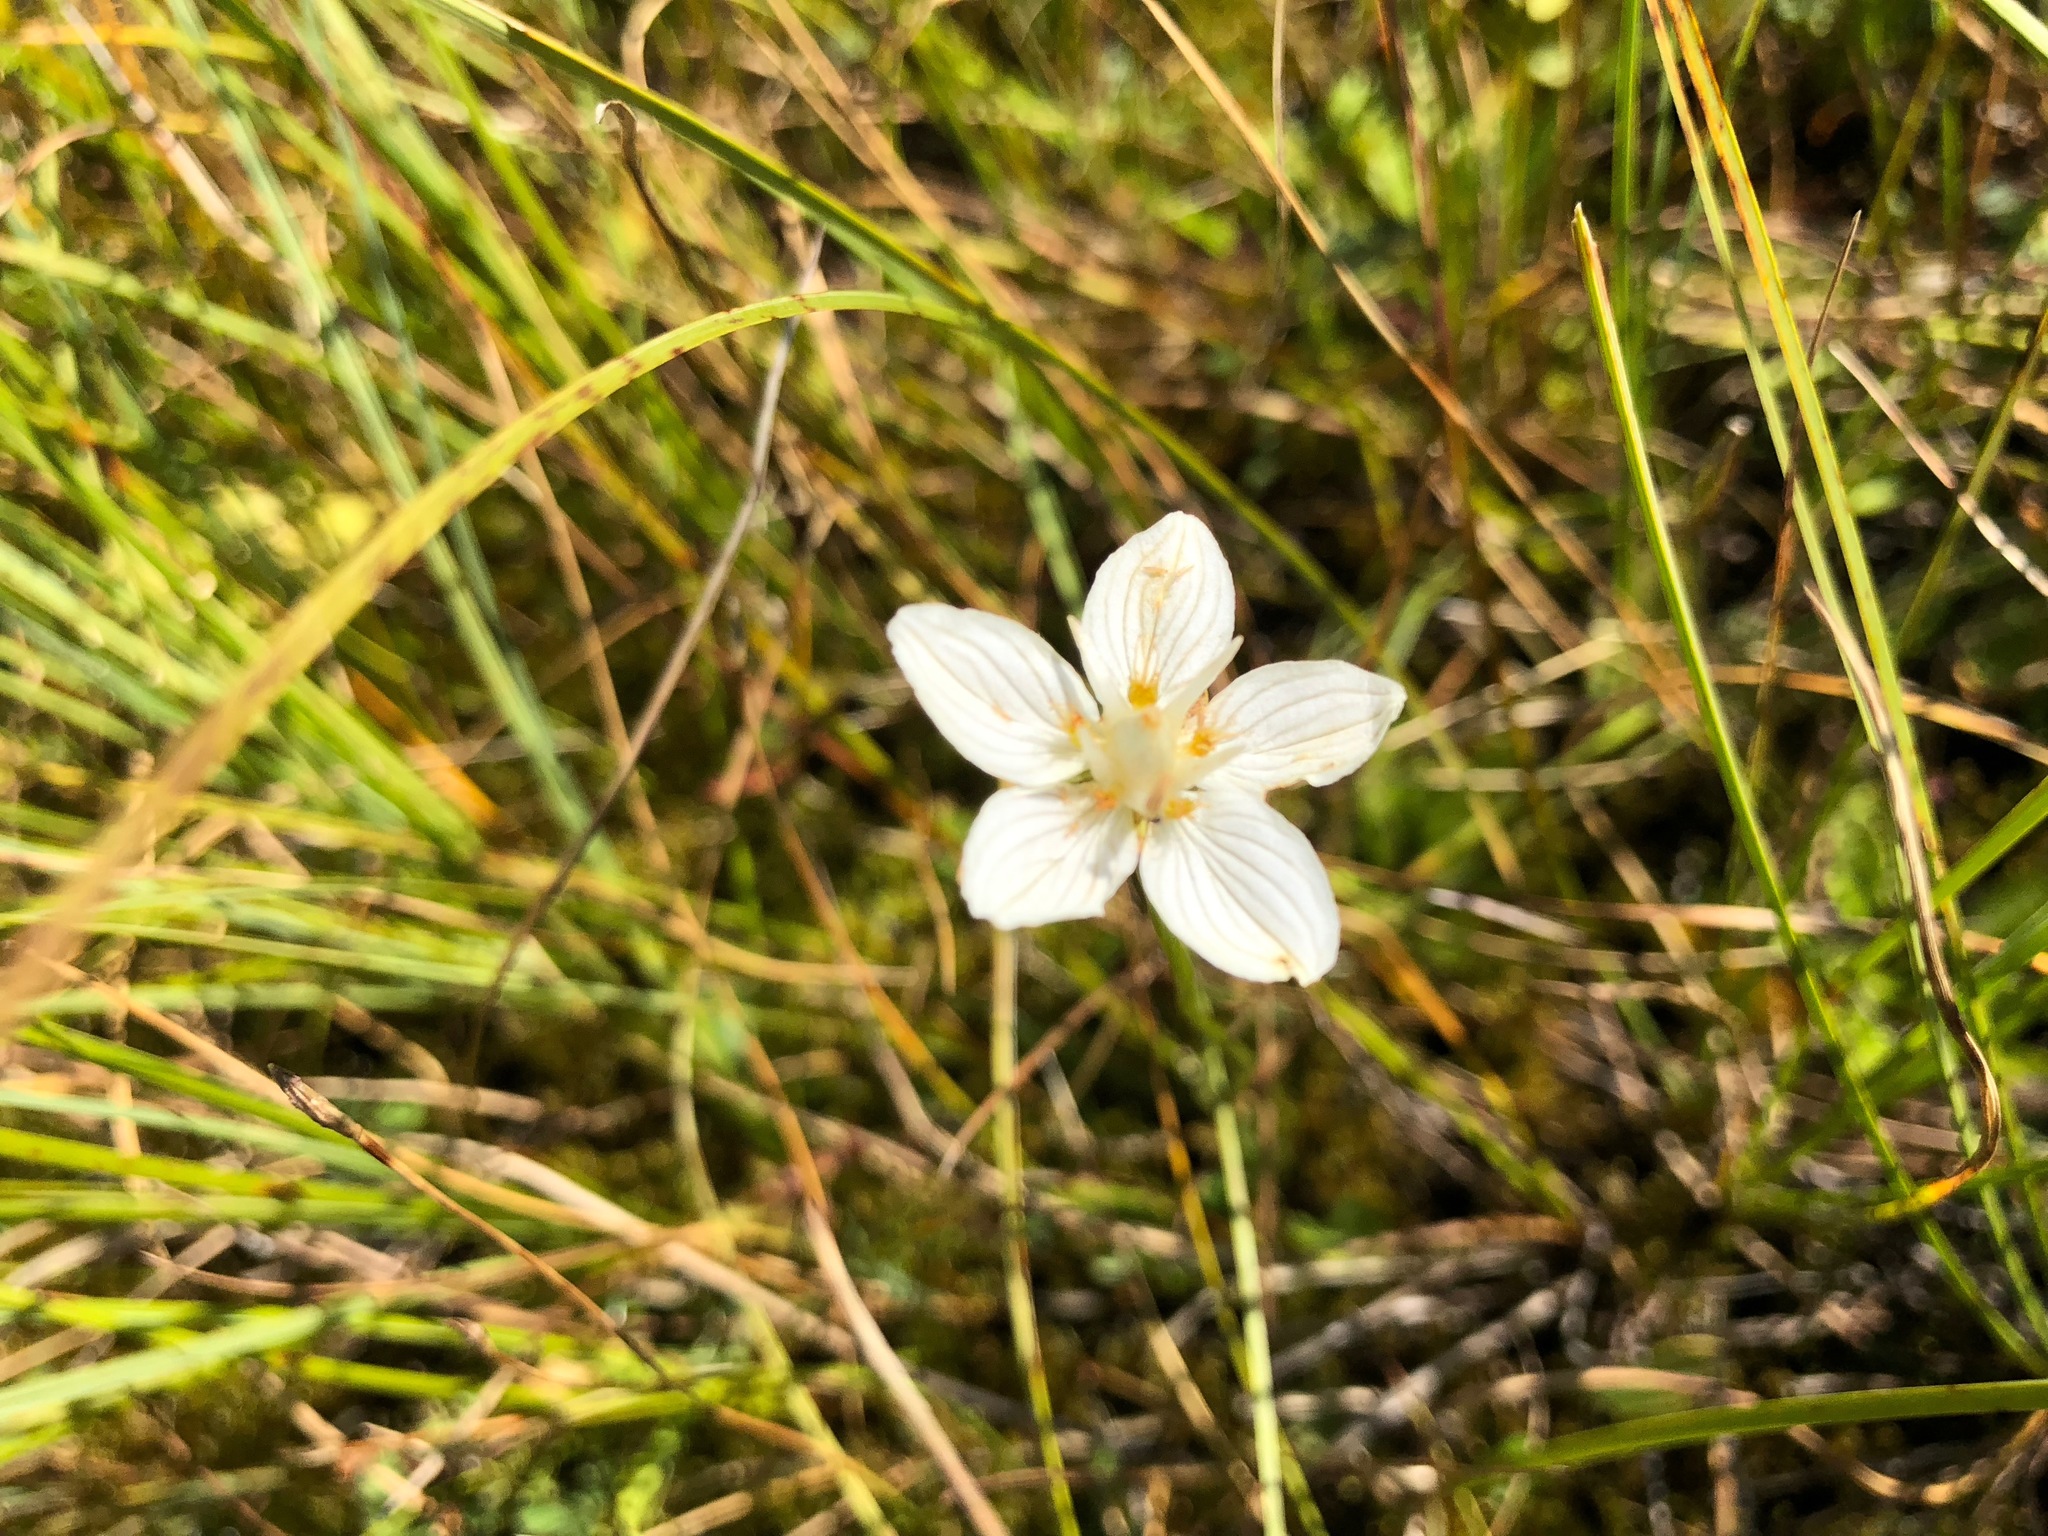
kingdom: Plantae
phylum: Tracheophyta
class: Magnoliopsida
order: Celastrales
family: Parnassiaceae
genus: Parnassia
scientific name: Parnassia palustris
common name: Grass-of-parnassus
